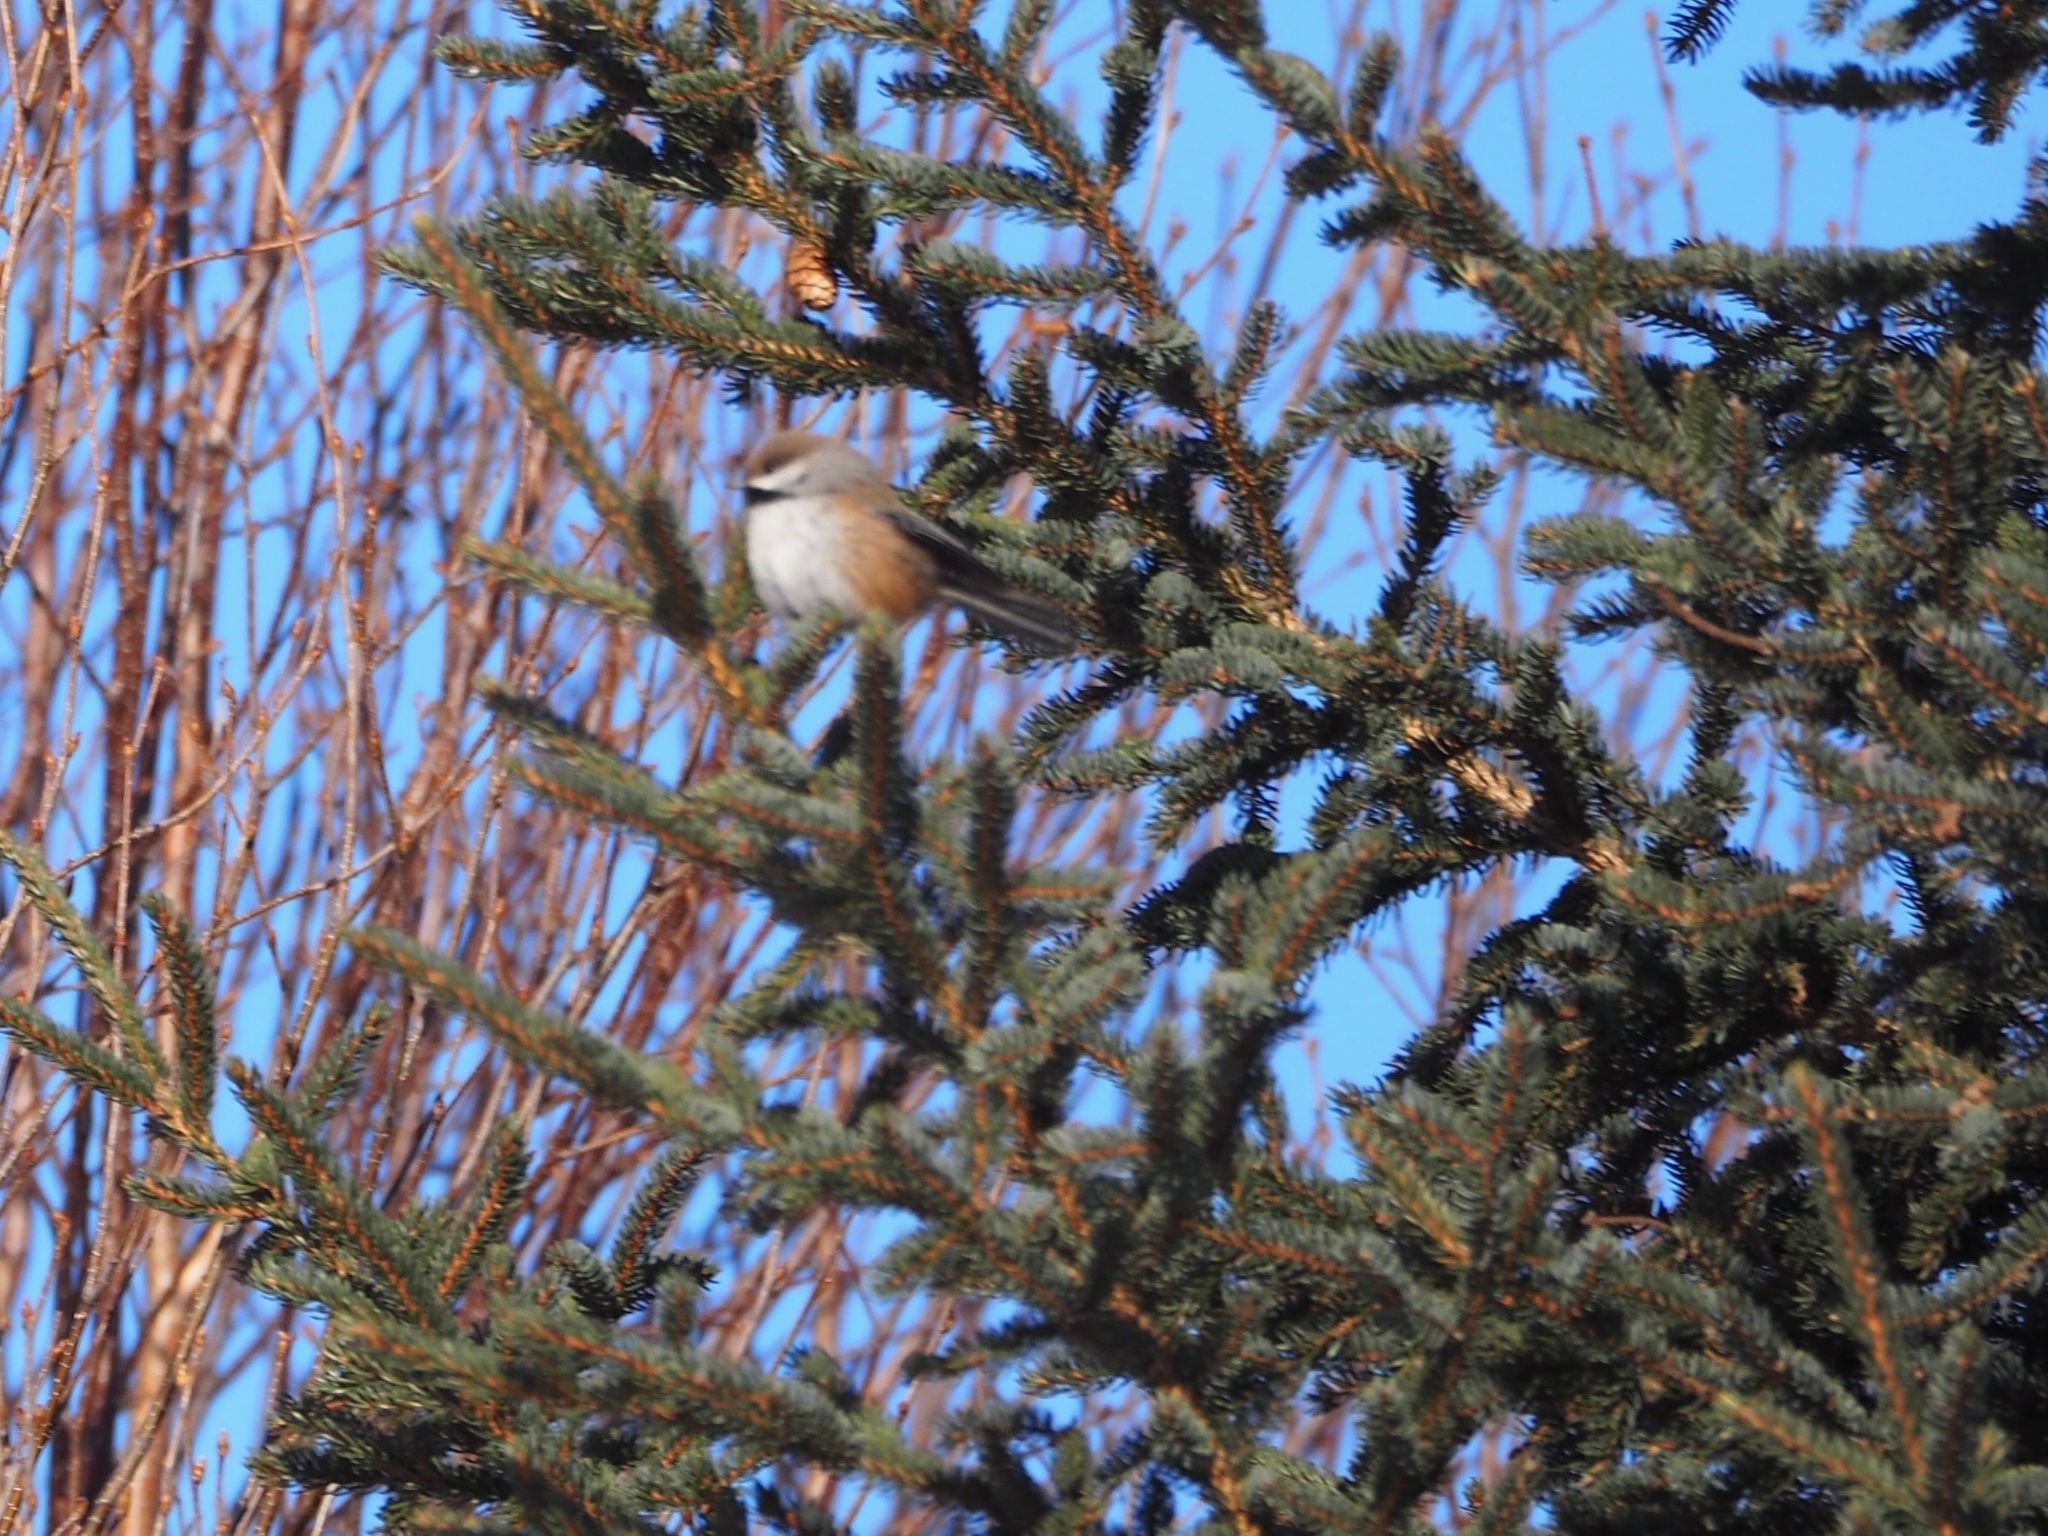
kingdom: Animalia
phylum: Chordata
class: Aves
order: Passeriformes
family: Paridae
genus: Poecile
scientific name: Poecile hudsonicus
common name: Boreal chickadee
